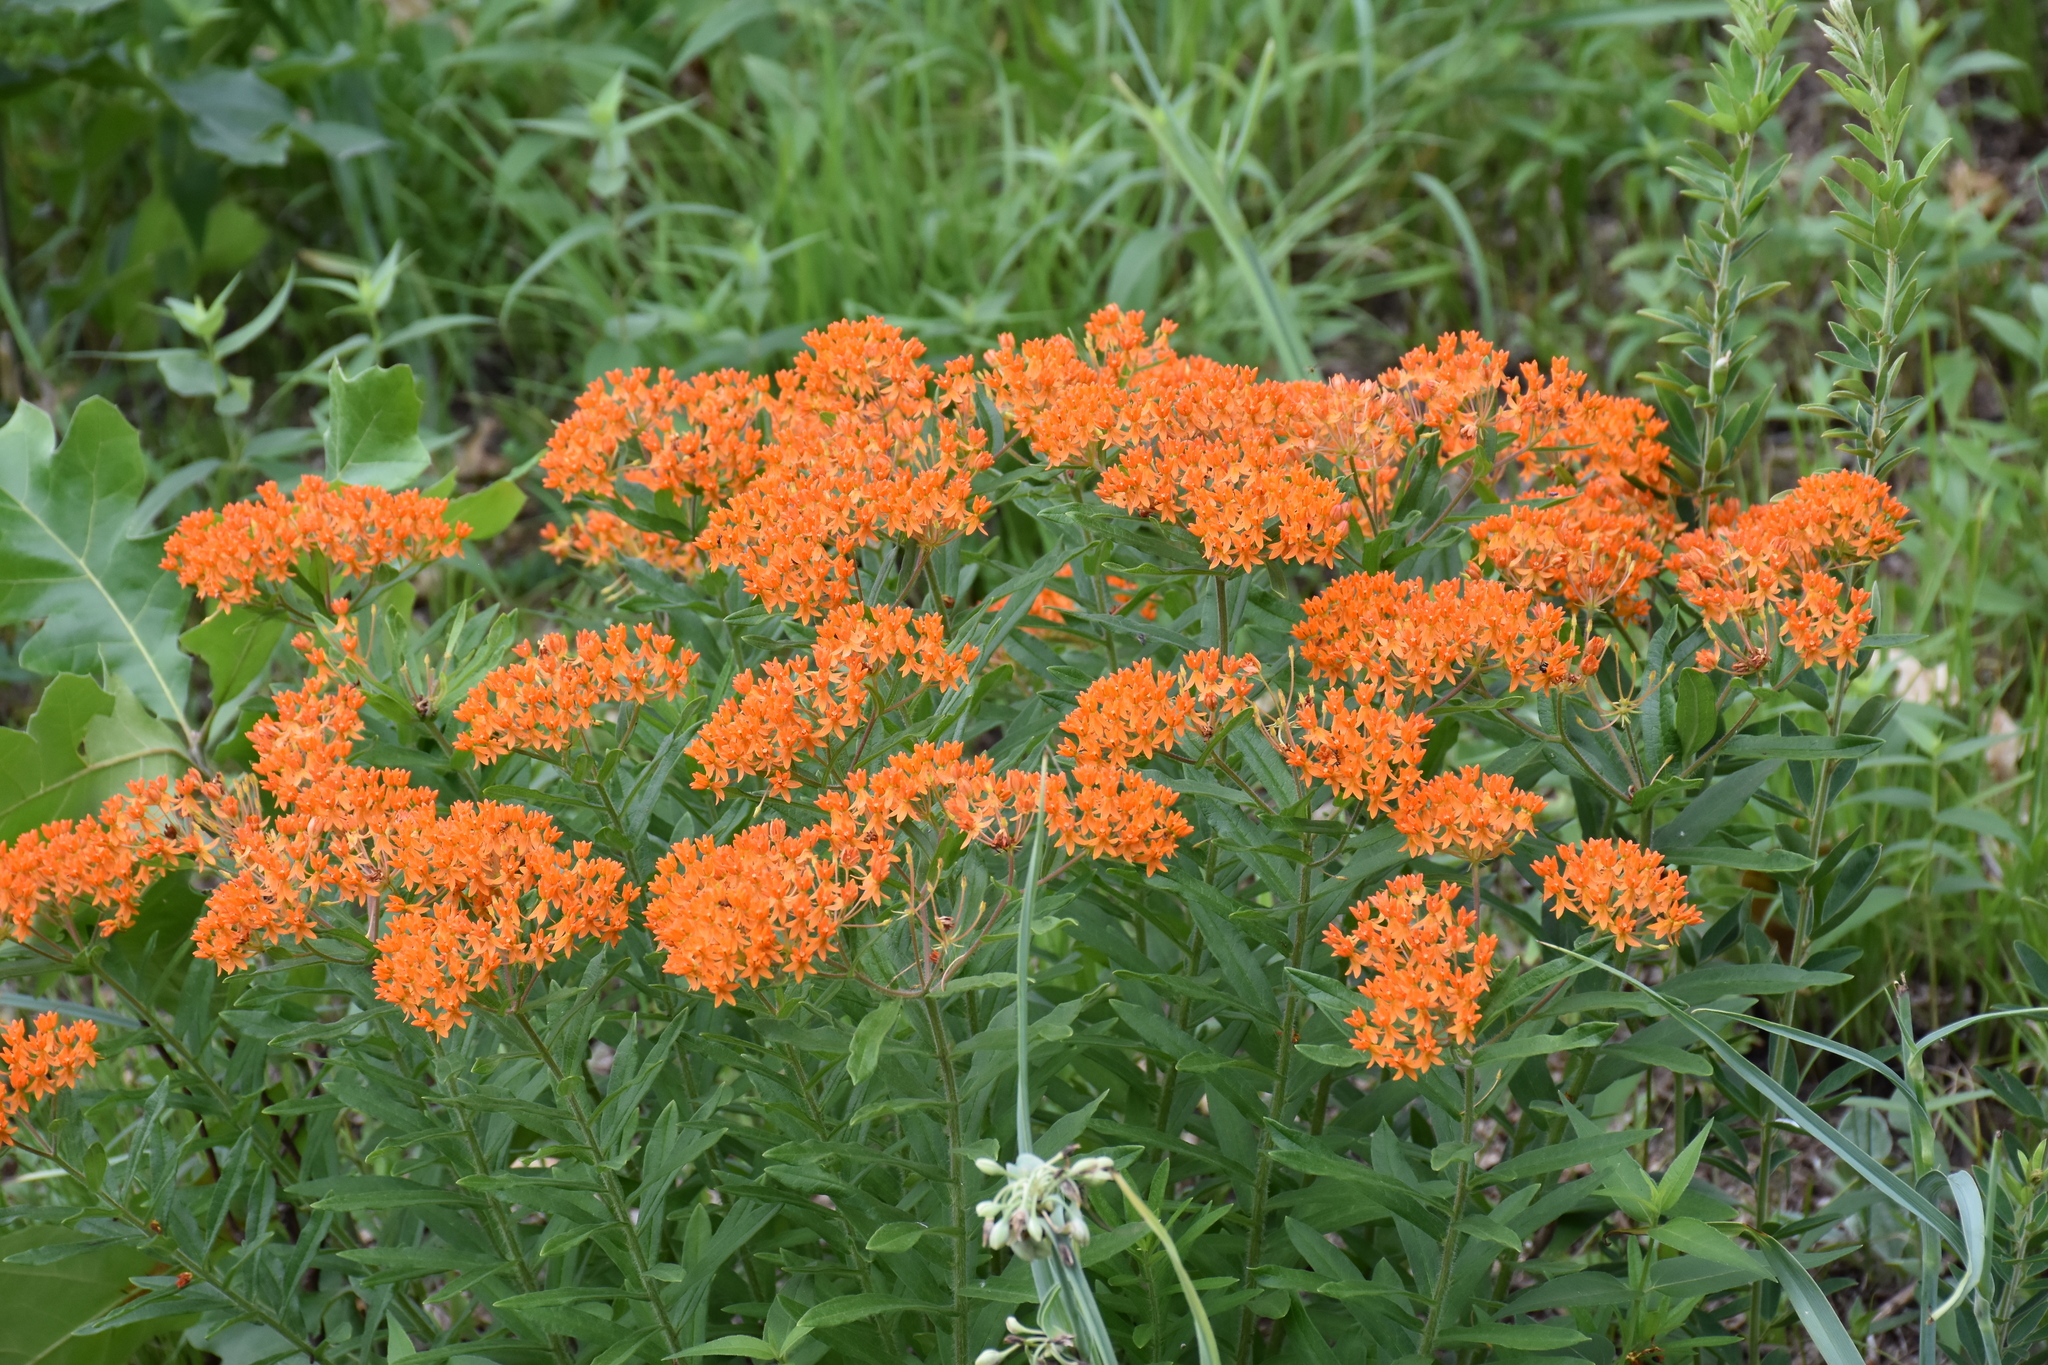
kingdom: Plantae
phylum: Tracheophyta
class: Magnoliopsida
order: Gentianales
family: Apocynaceae
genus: Asclepias
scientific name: Asclepias tuberosa
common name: Butterfly milkweed
